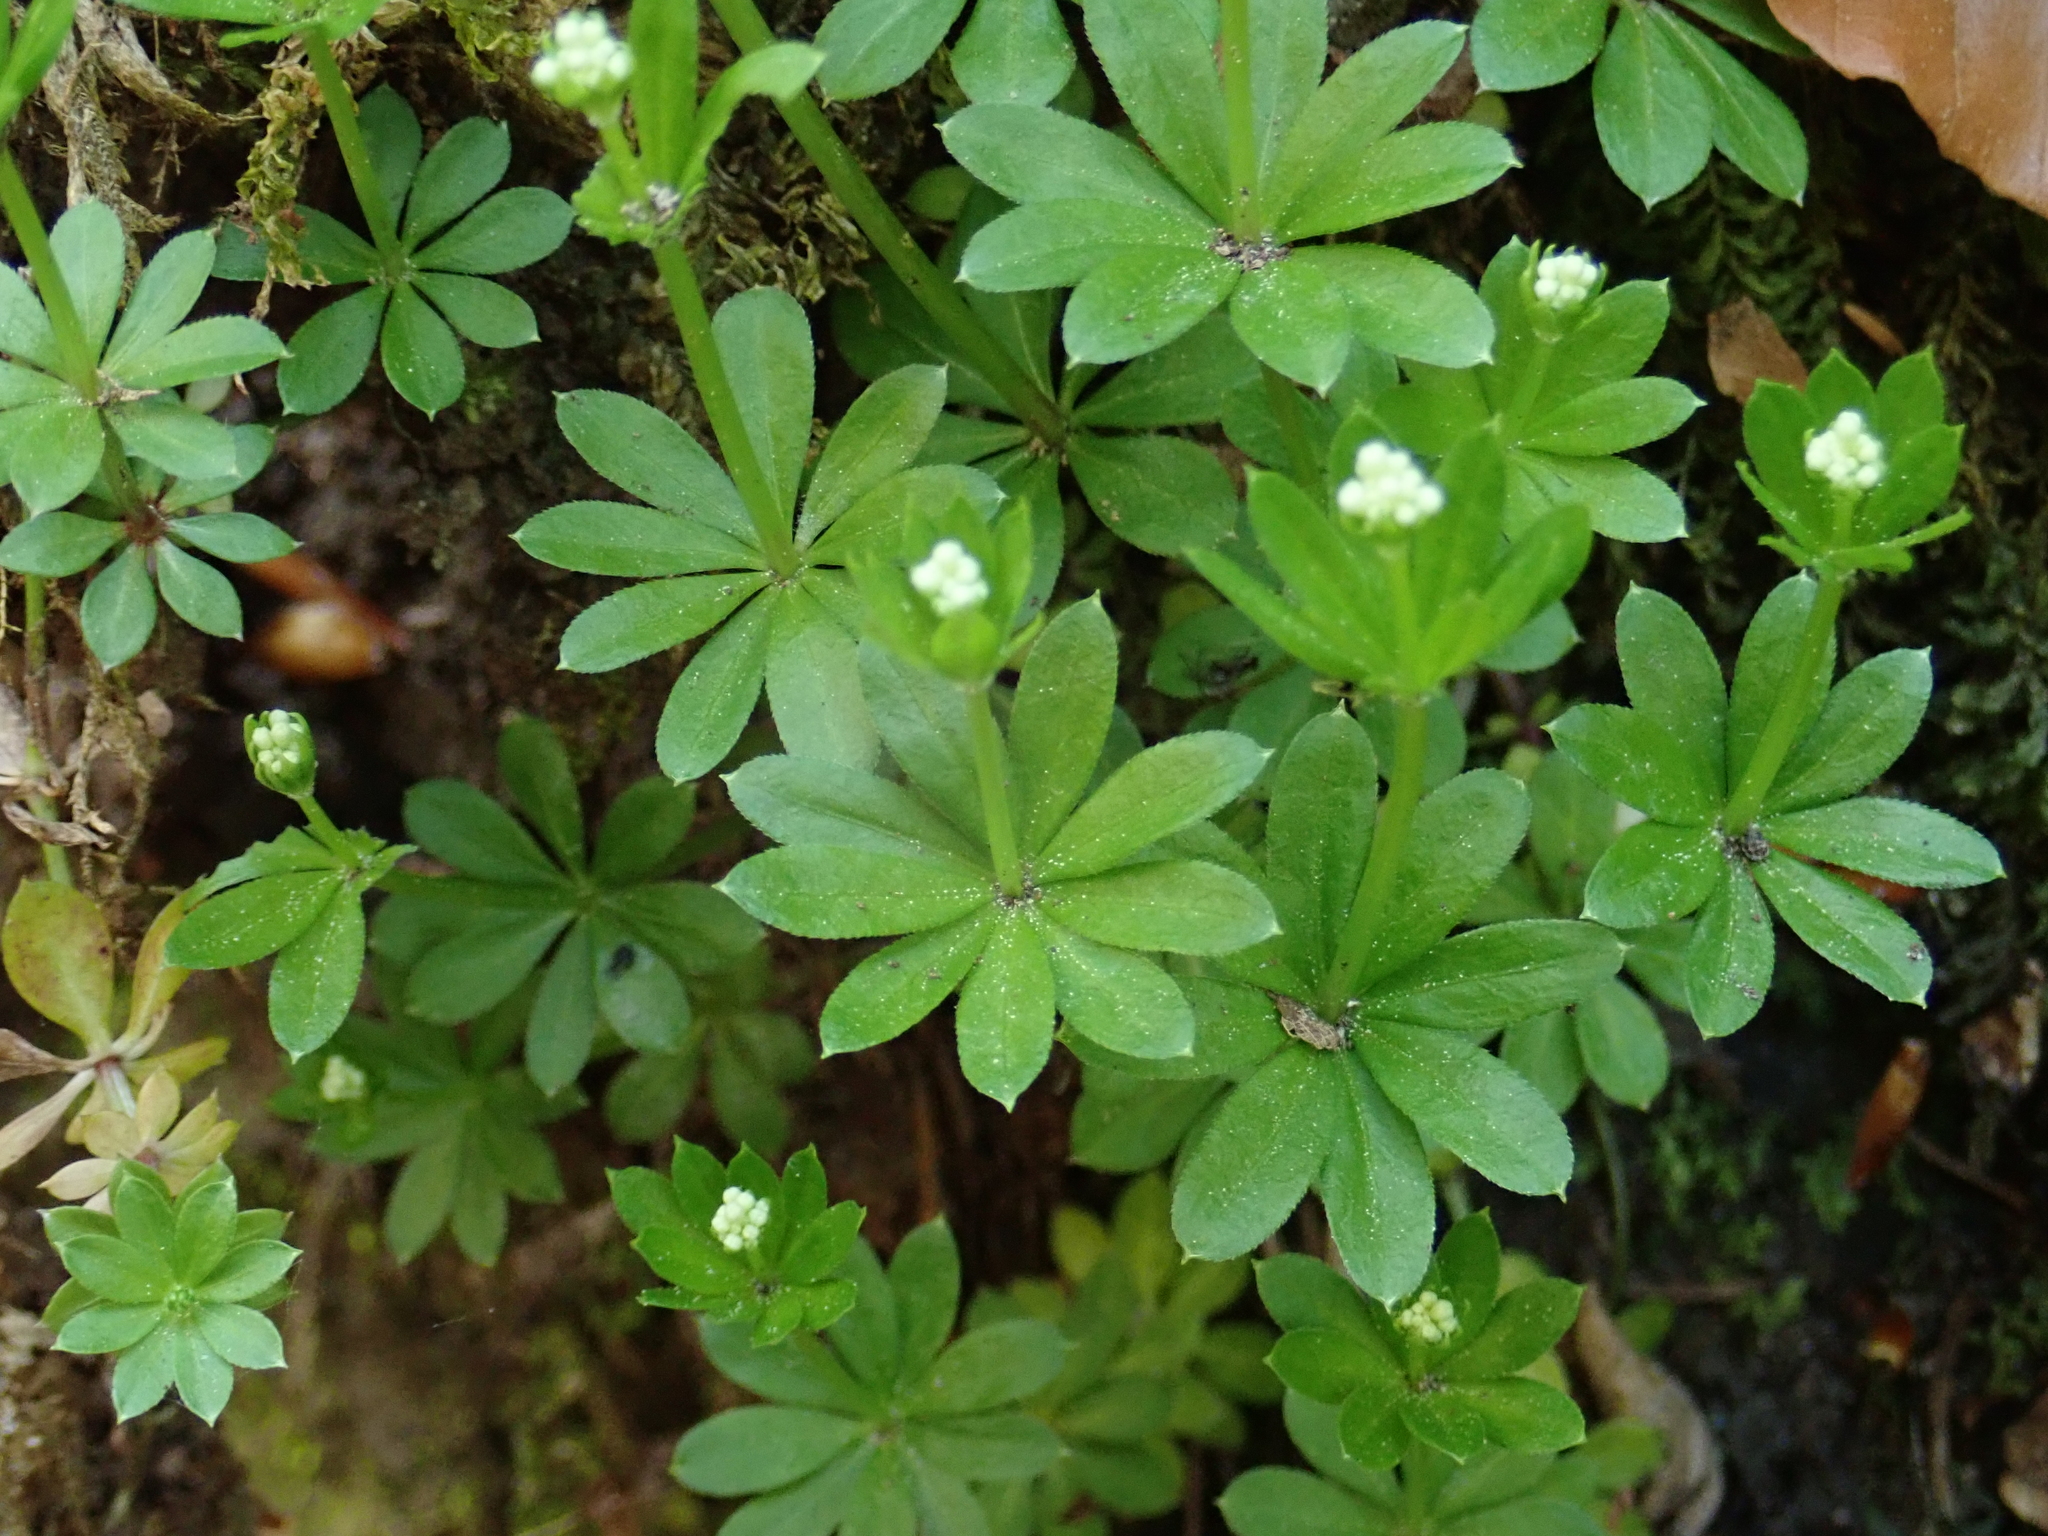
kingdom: Plantae
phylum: Tracheophyta
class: Magnoliopsida
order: Gentianales
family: Rubiaceae
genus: Galium
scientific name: Galium odoratum
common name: Sweet woodruff
